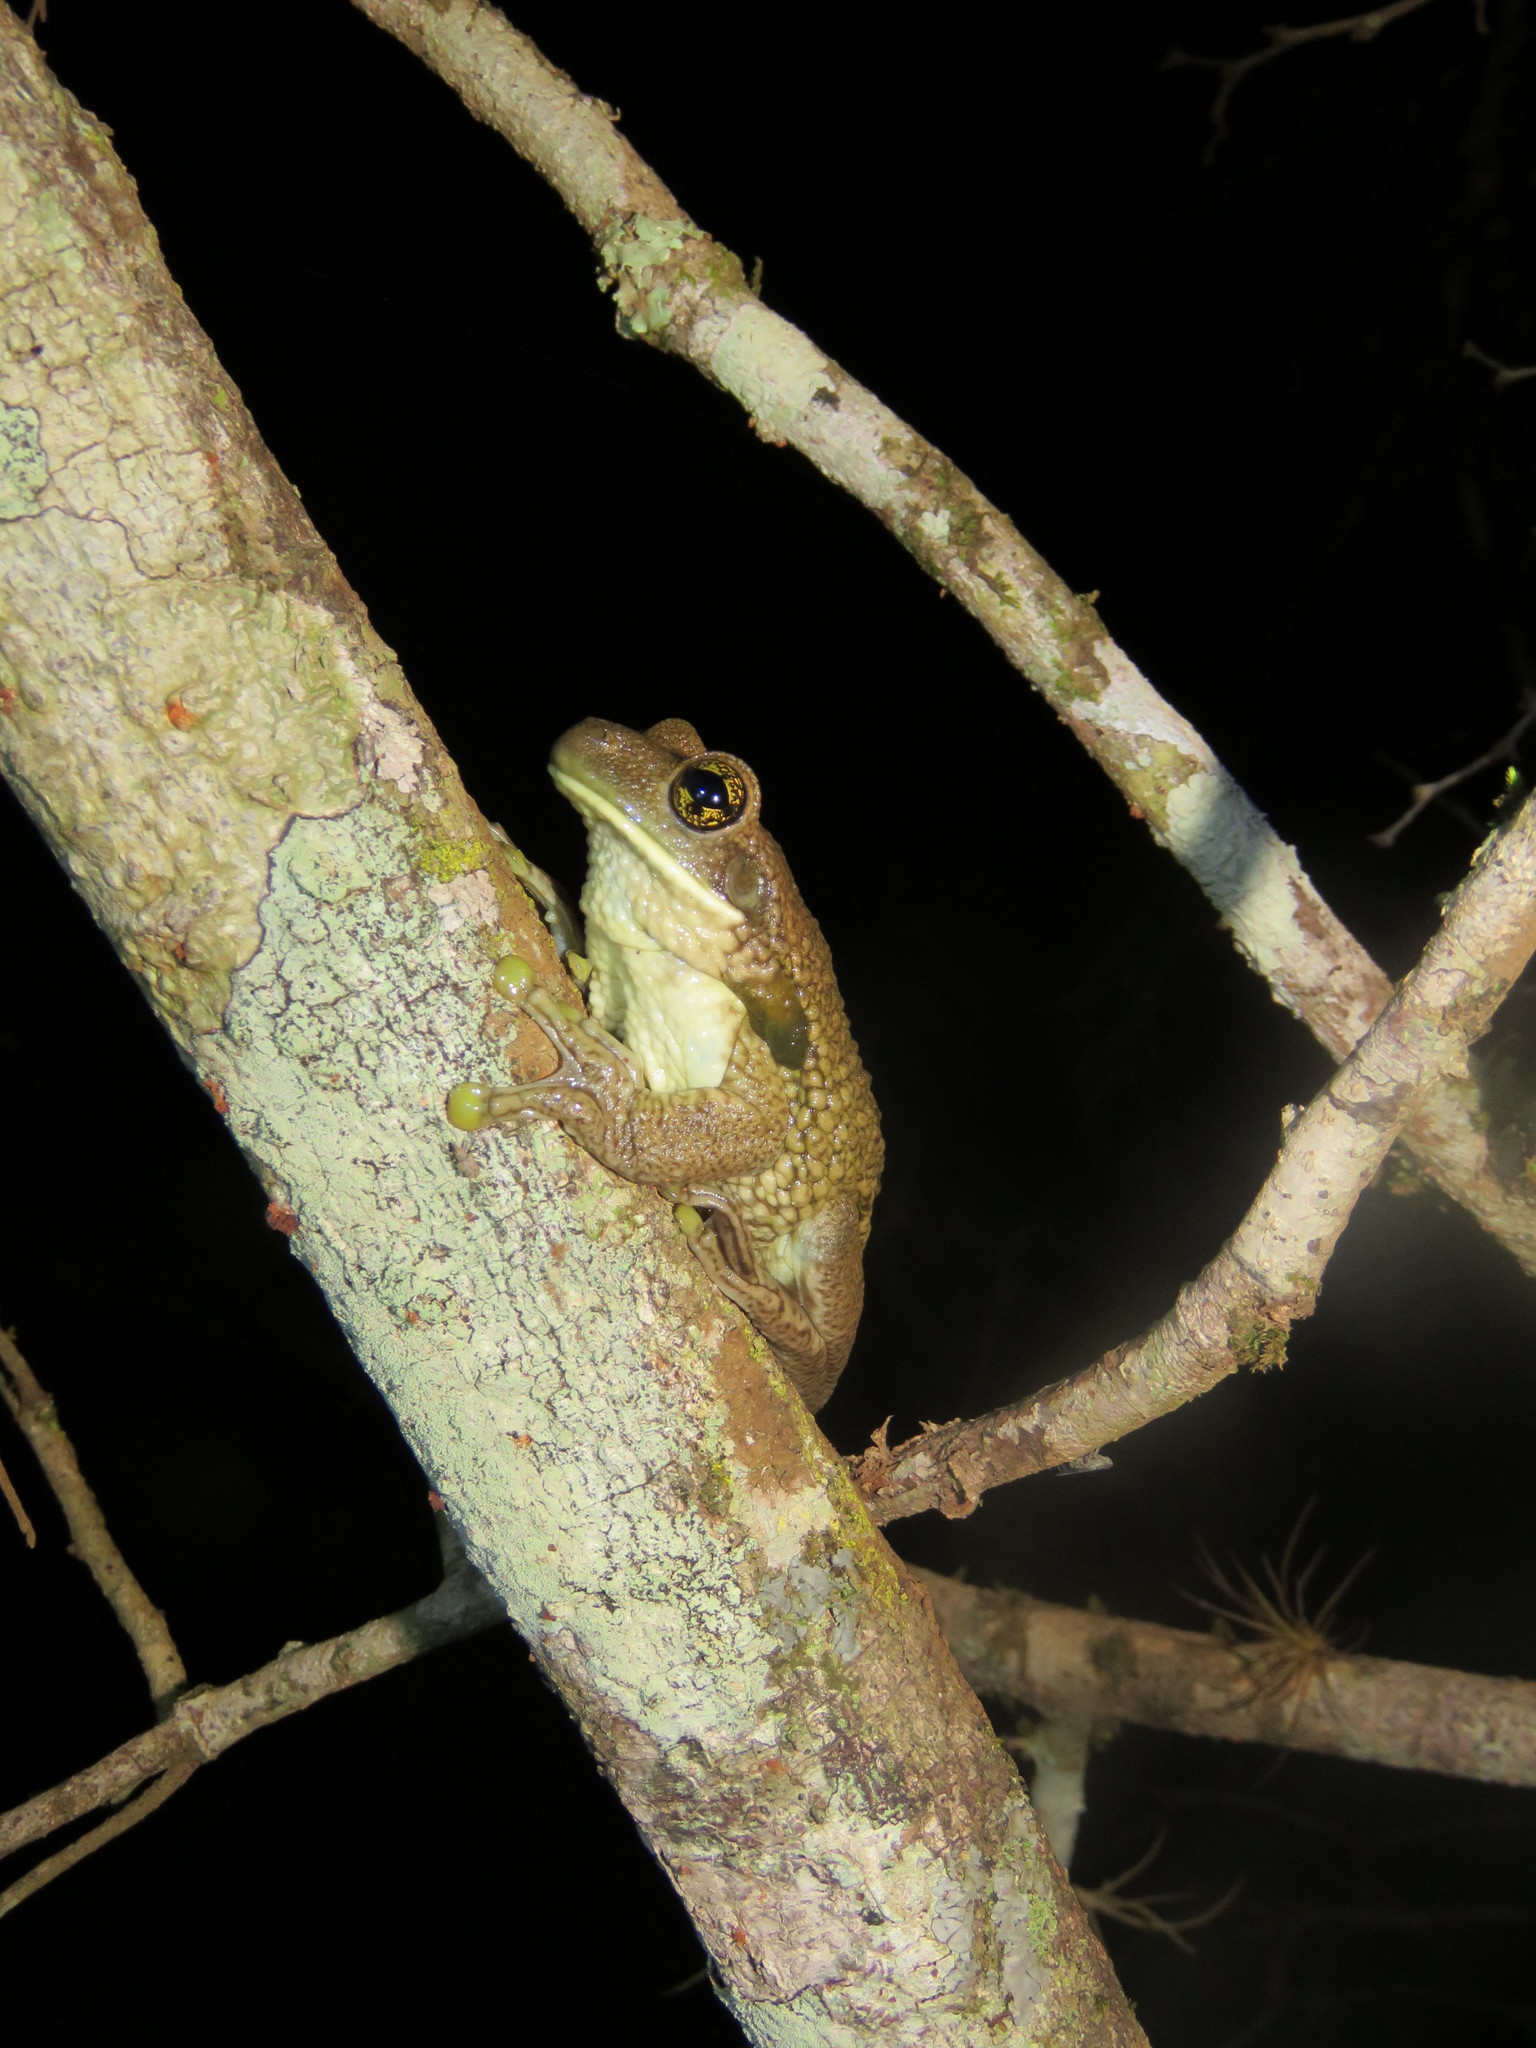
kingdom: Animalia
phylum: Chordata
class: Amphibia
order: Anura
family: Hylidae
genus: Trachycephalus
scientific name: Trachycephalus typhonius
